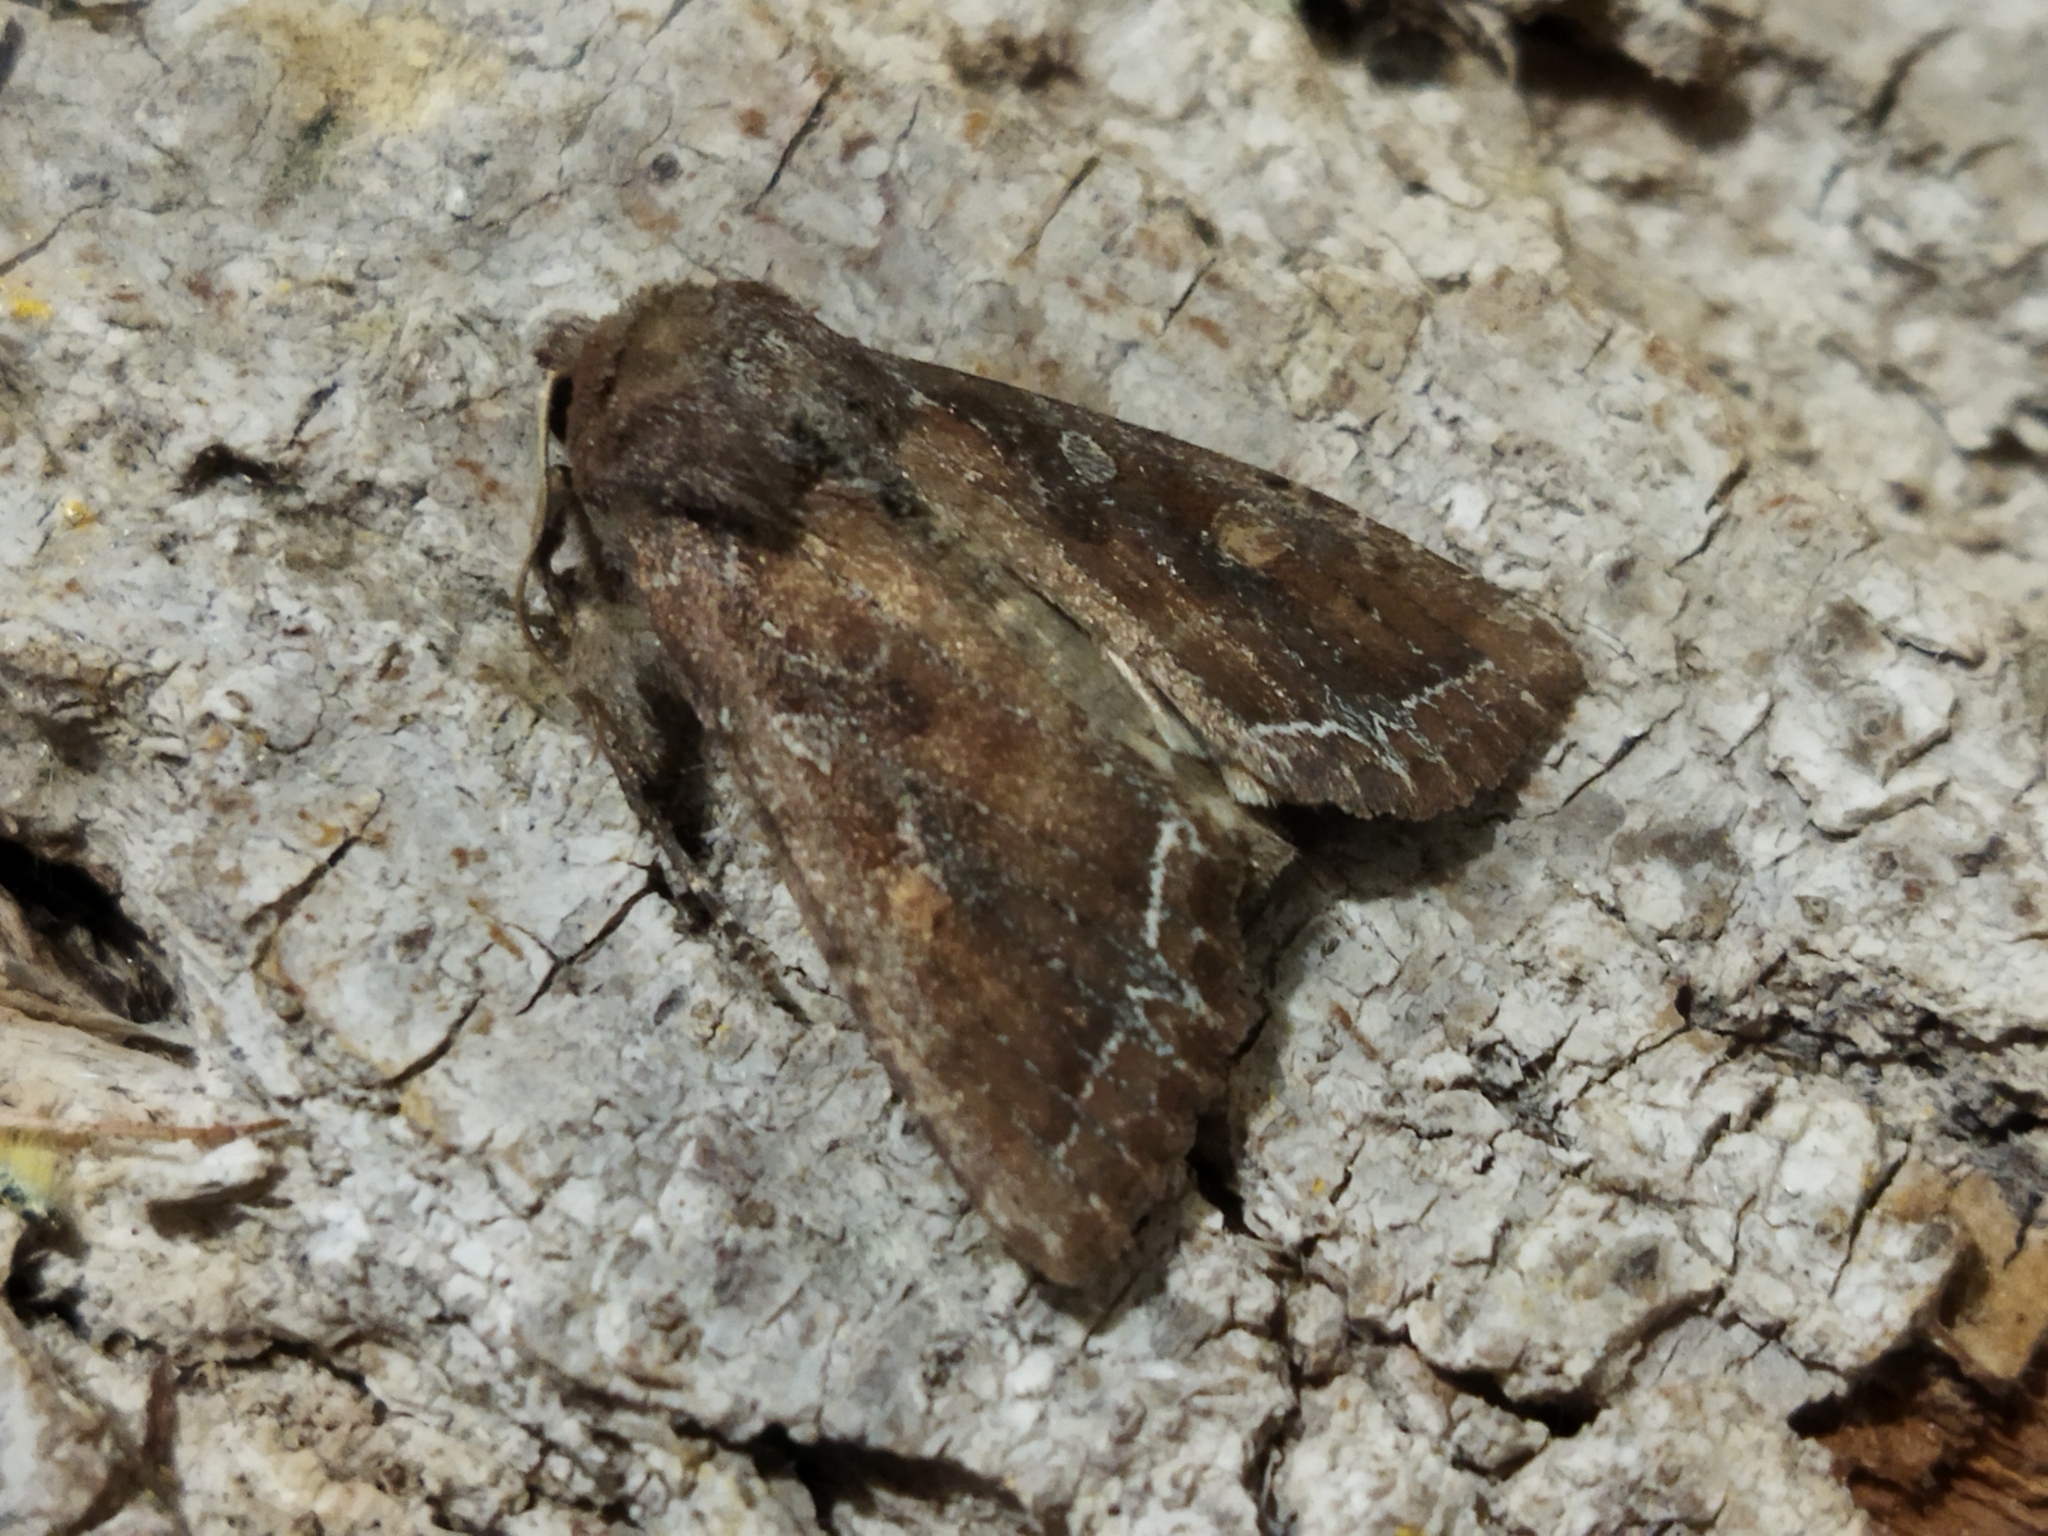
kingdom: Animalia
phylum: Arthropoda
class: Insecta
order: Lepidoptera
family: Noctuidae
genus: Lacanobia
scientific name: Lacanobia oleracea
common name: Bright-line brown-eye
